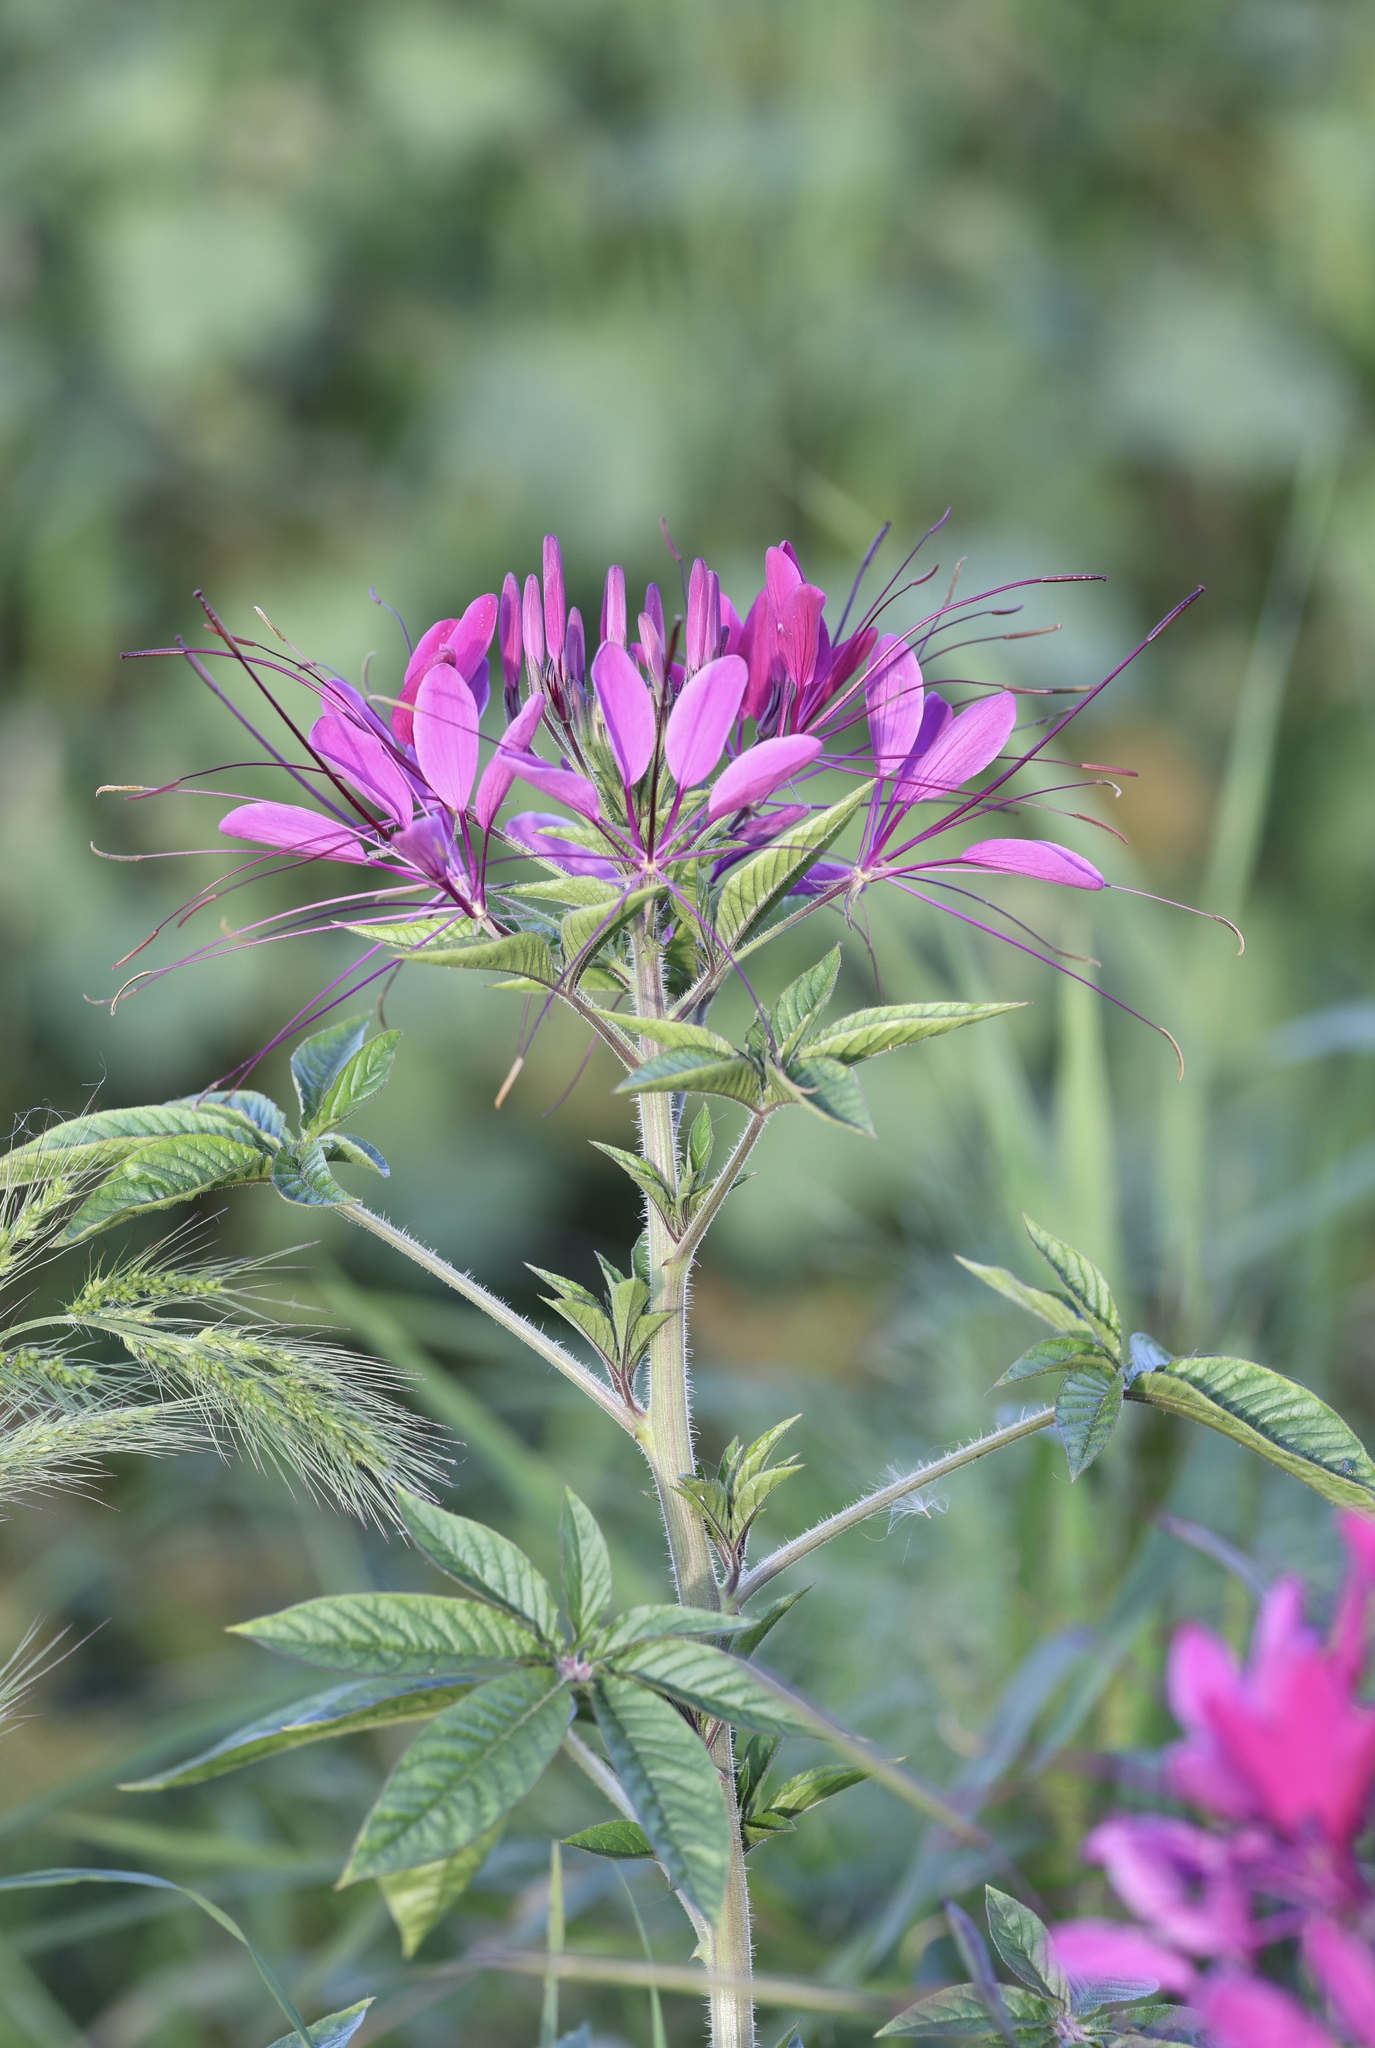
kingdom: Plantae
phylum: Tracheophyta
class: Magnoliopsida
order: Brassicales
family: Cleomaceae
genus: Tarenaya
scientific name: Tarenaya houtteana
